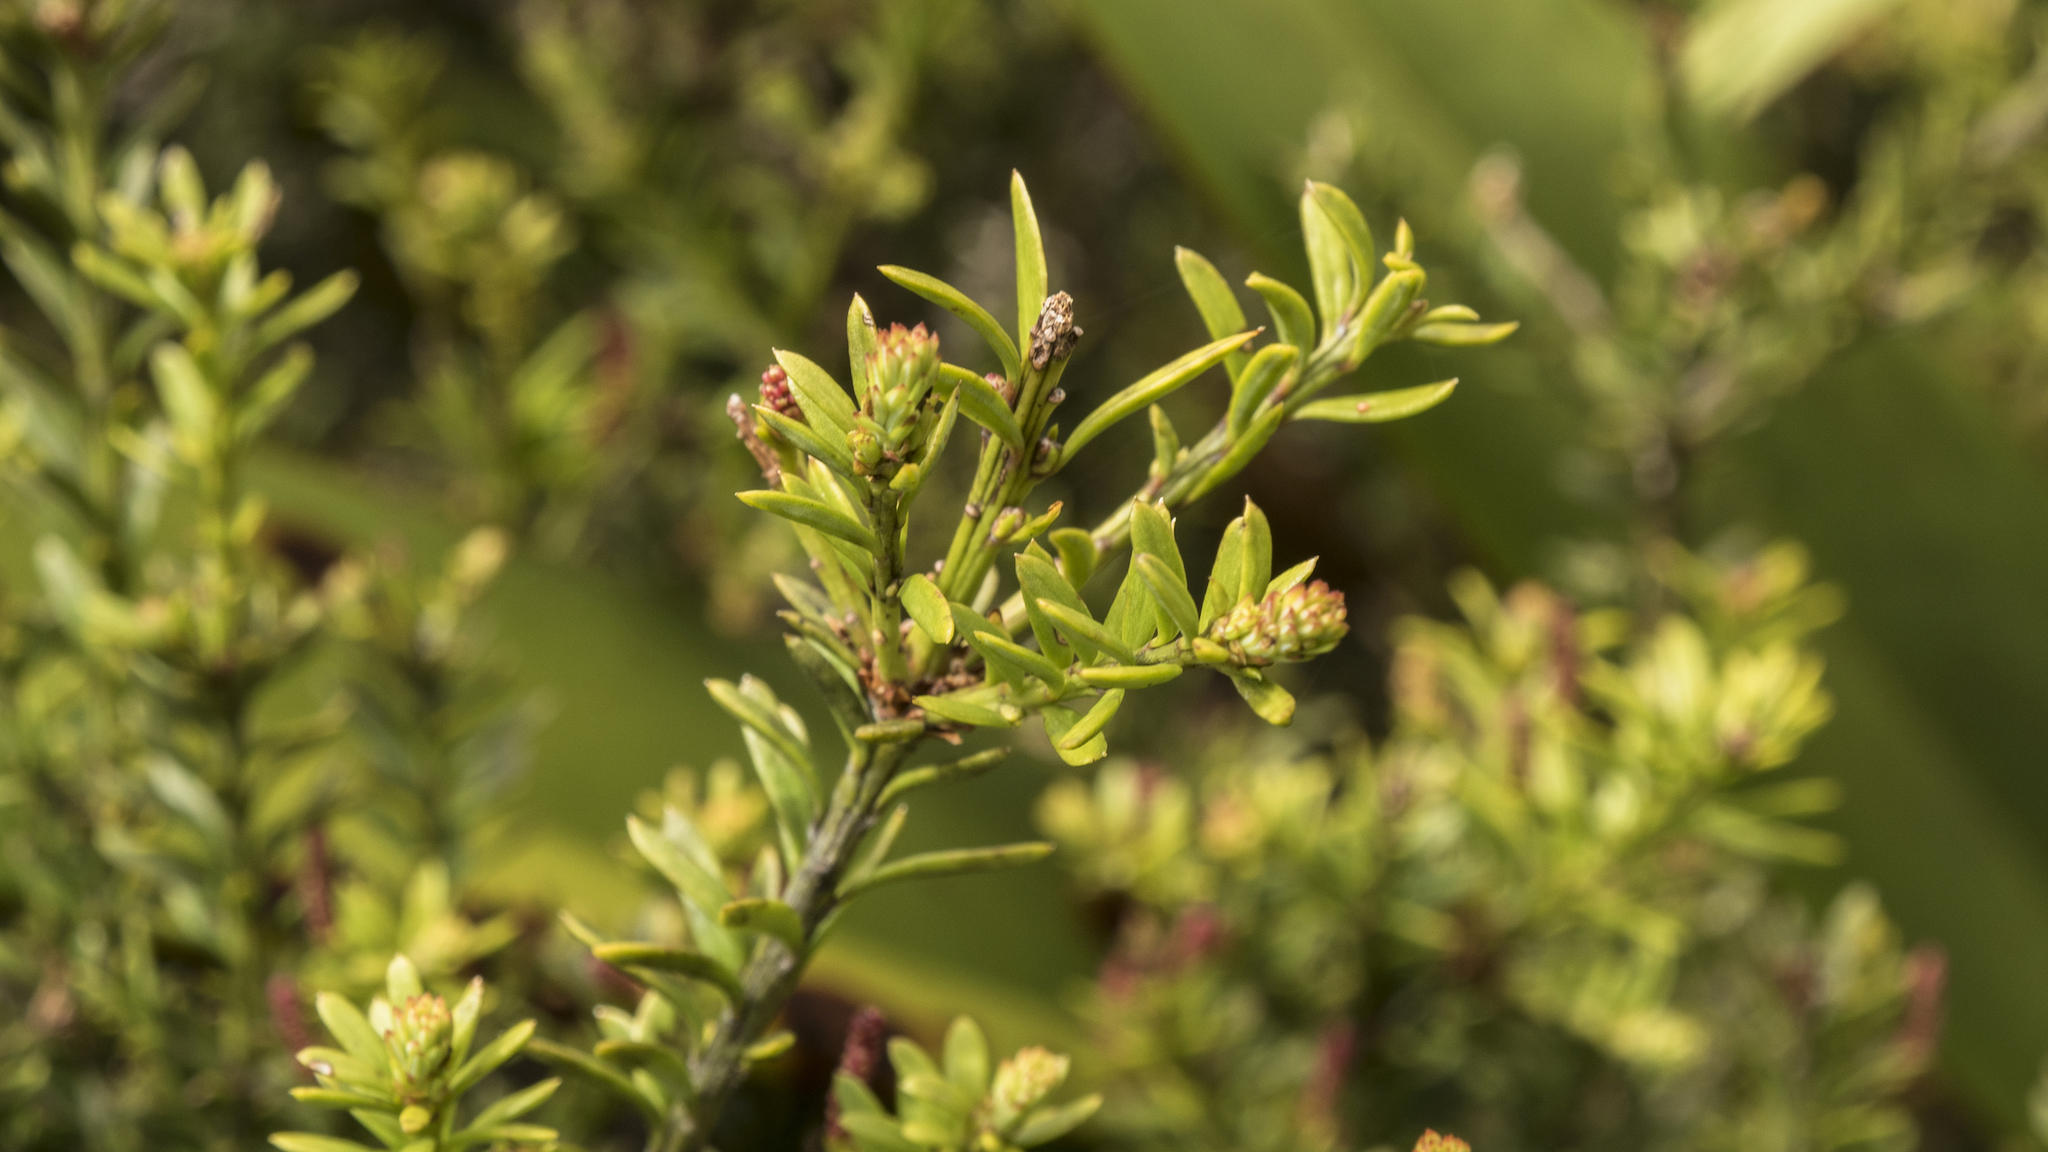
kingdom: Plantae
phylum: Tracheophyta
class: Pinopsida
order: Pinales
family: Podocarpaceae
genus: Podocarpus
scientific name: Podocarpus nivalis
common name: Alpine totara
